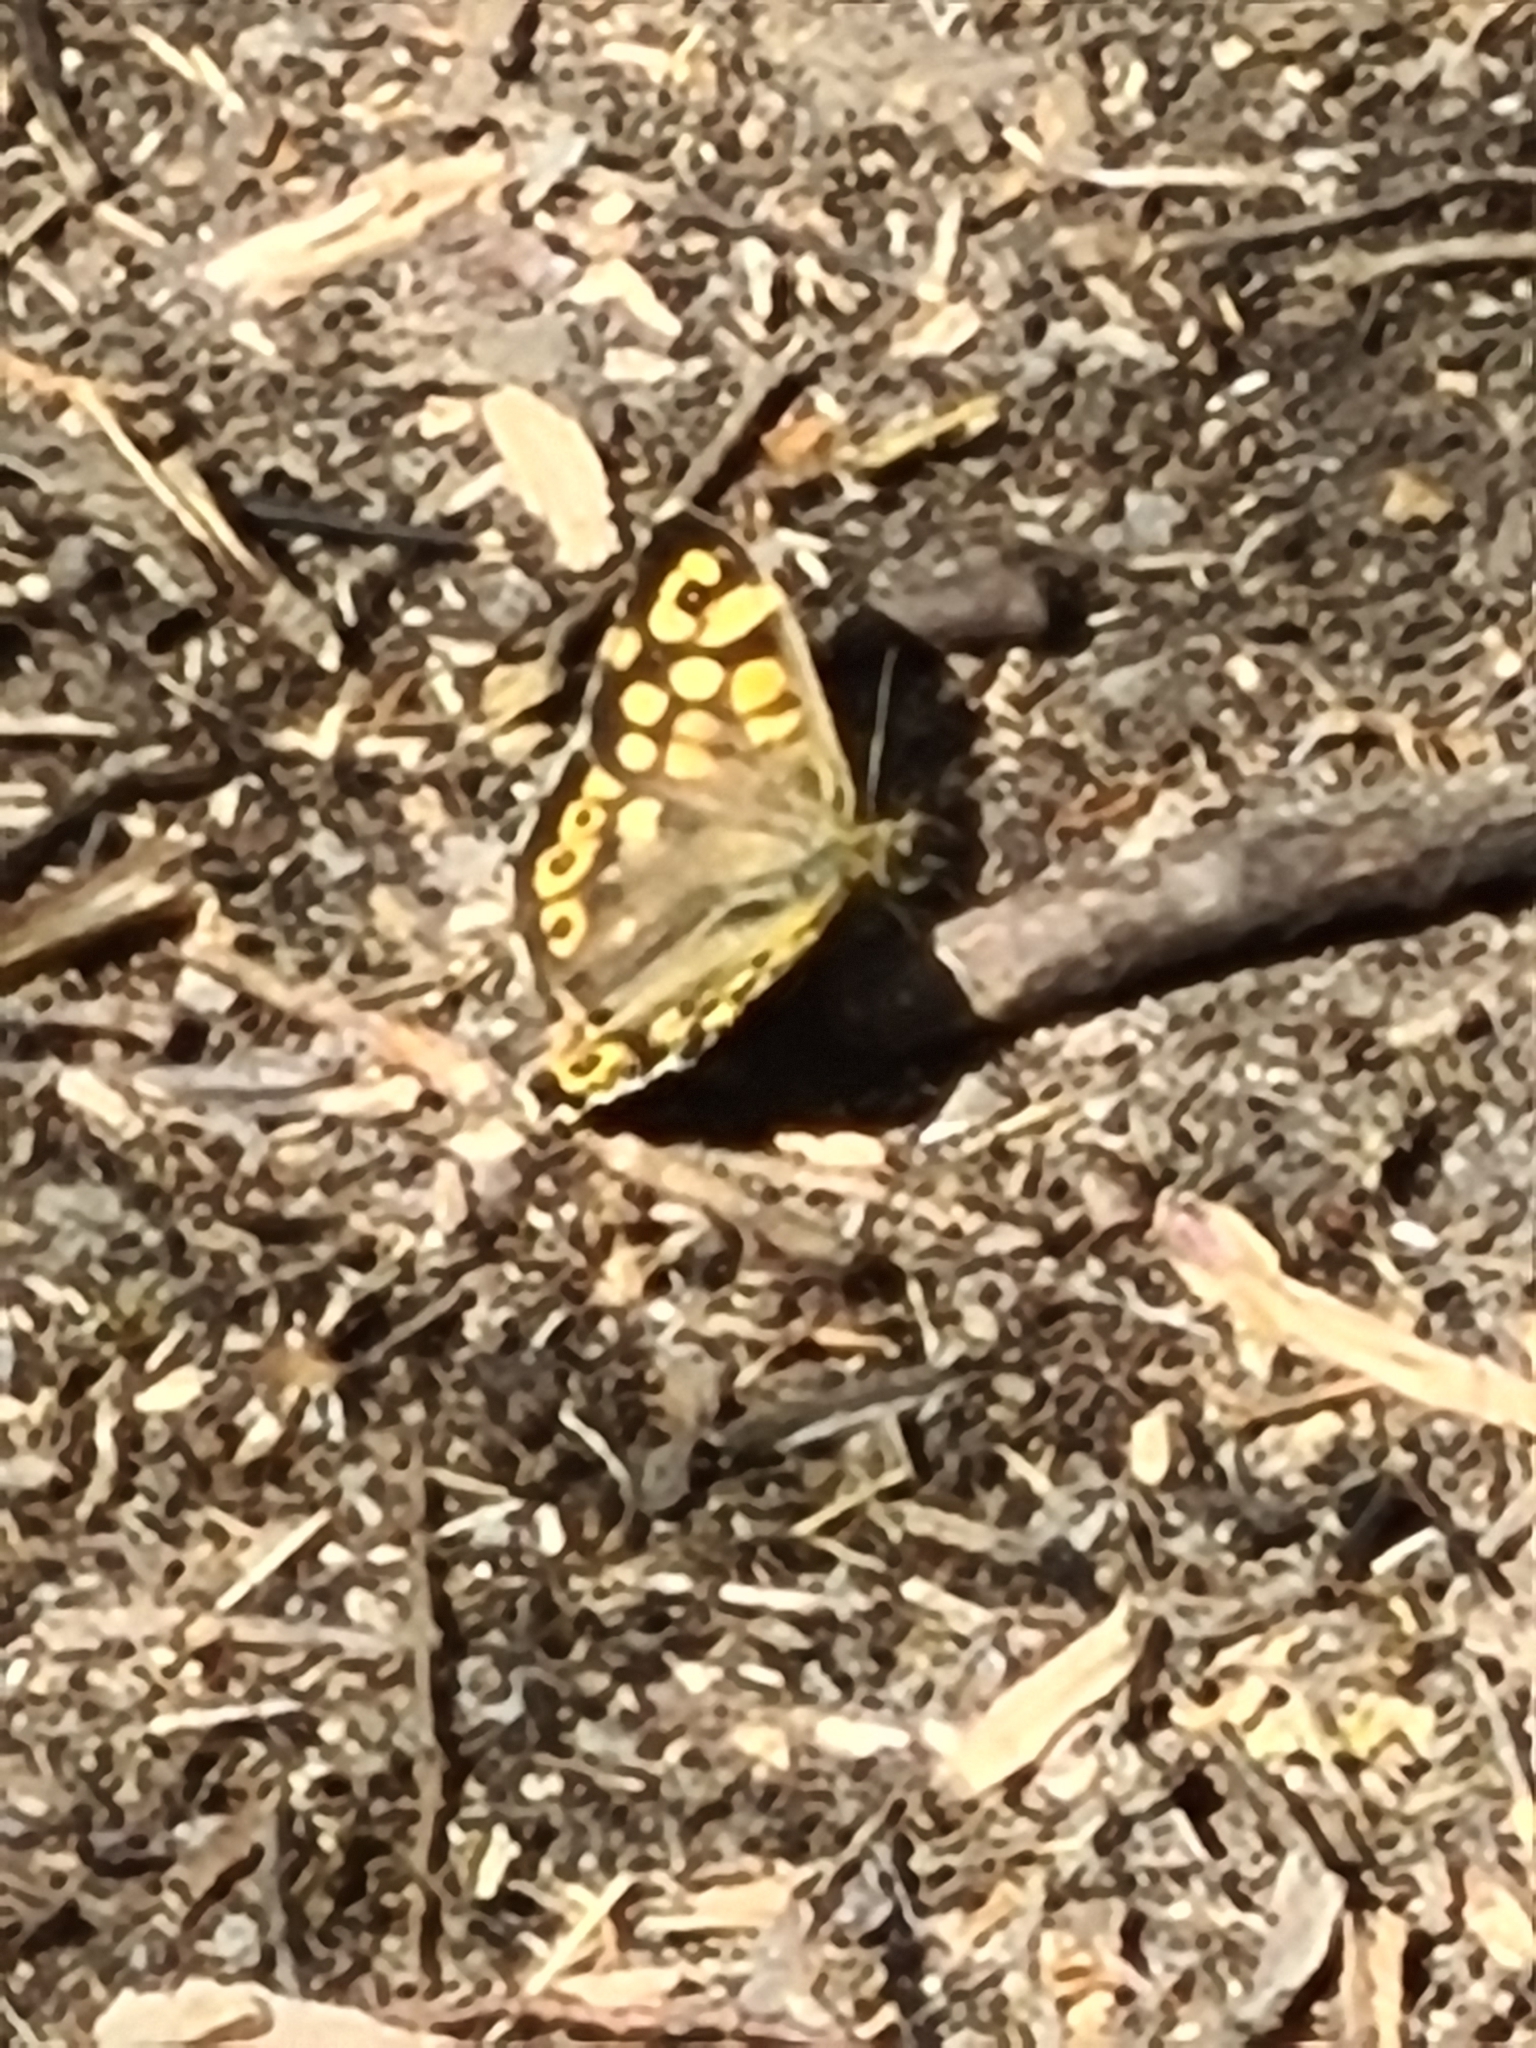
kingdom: Animalia
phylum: Arthropoda
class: Insecta
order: Lepidoptera
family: Nymphalidae
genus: Pararge
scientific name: Pararge aegeria
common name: Speckled wood
